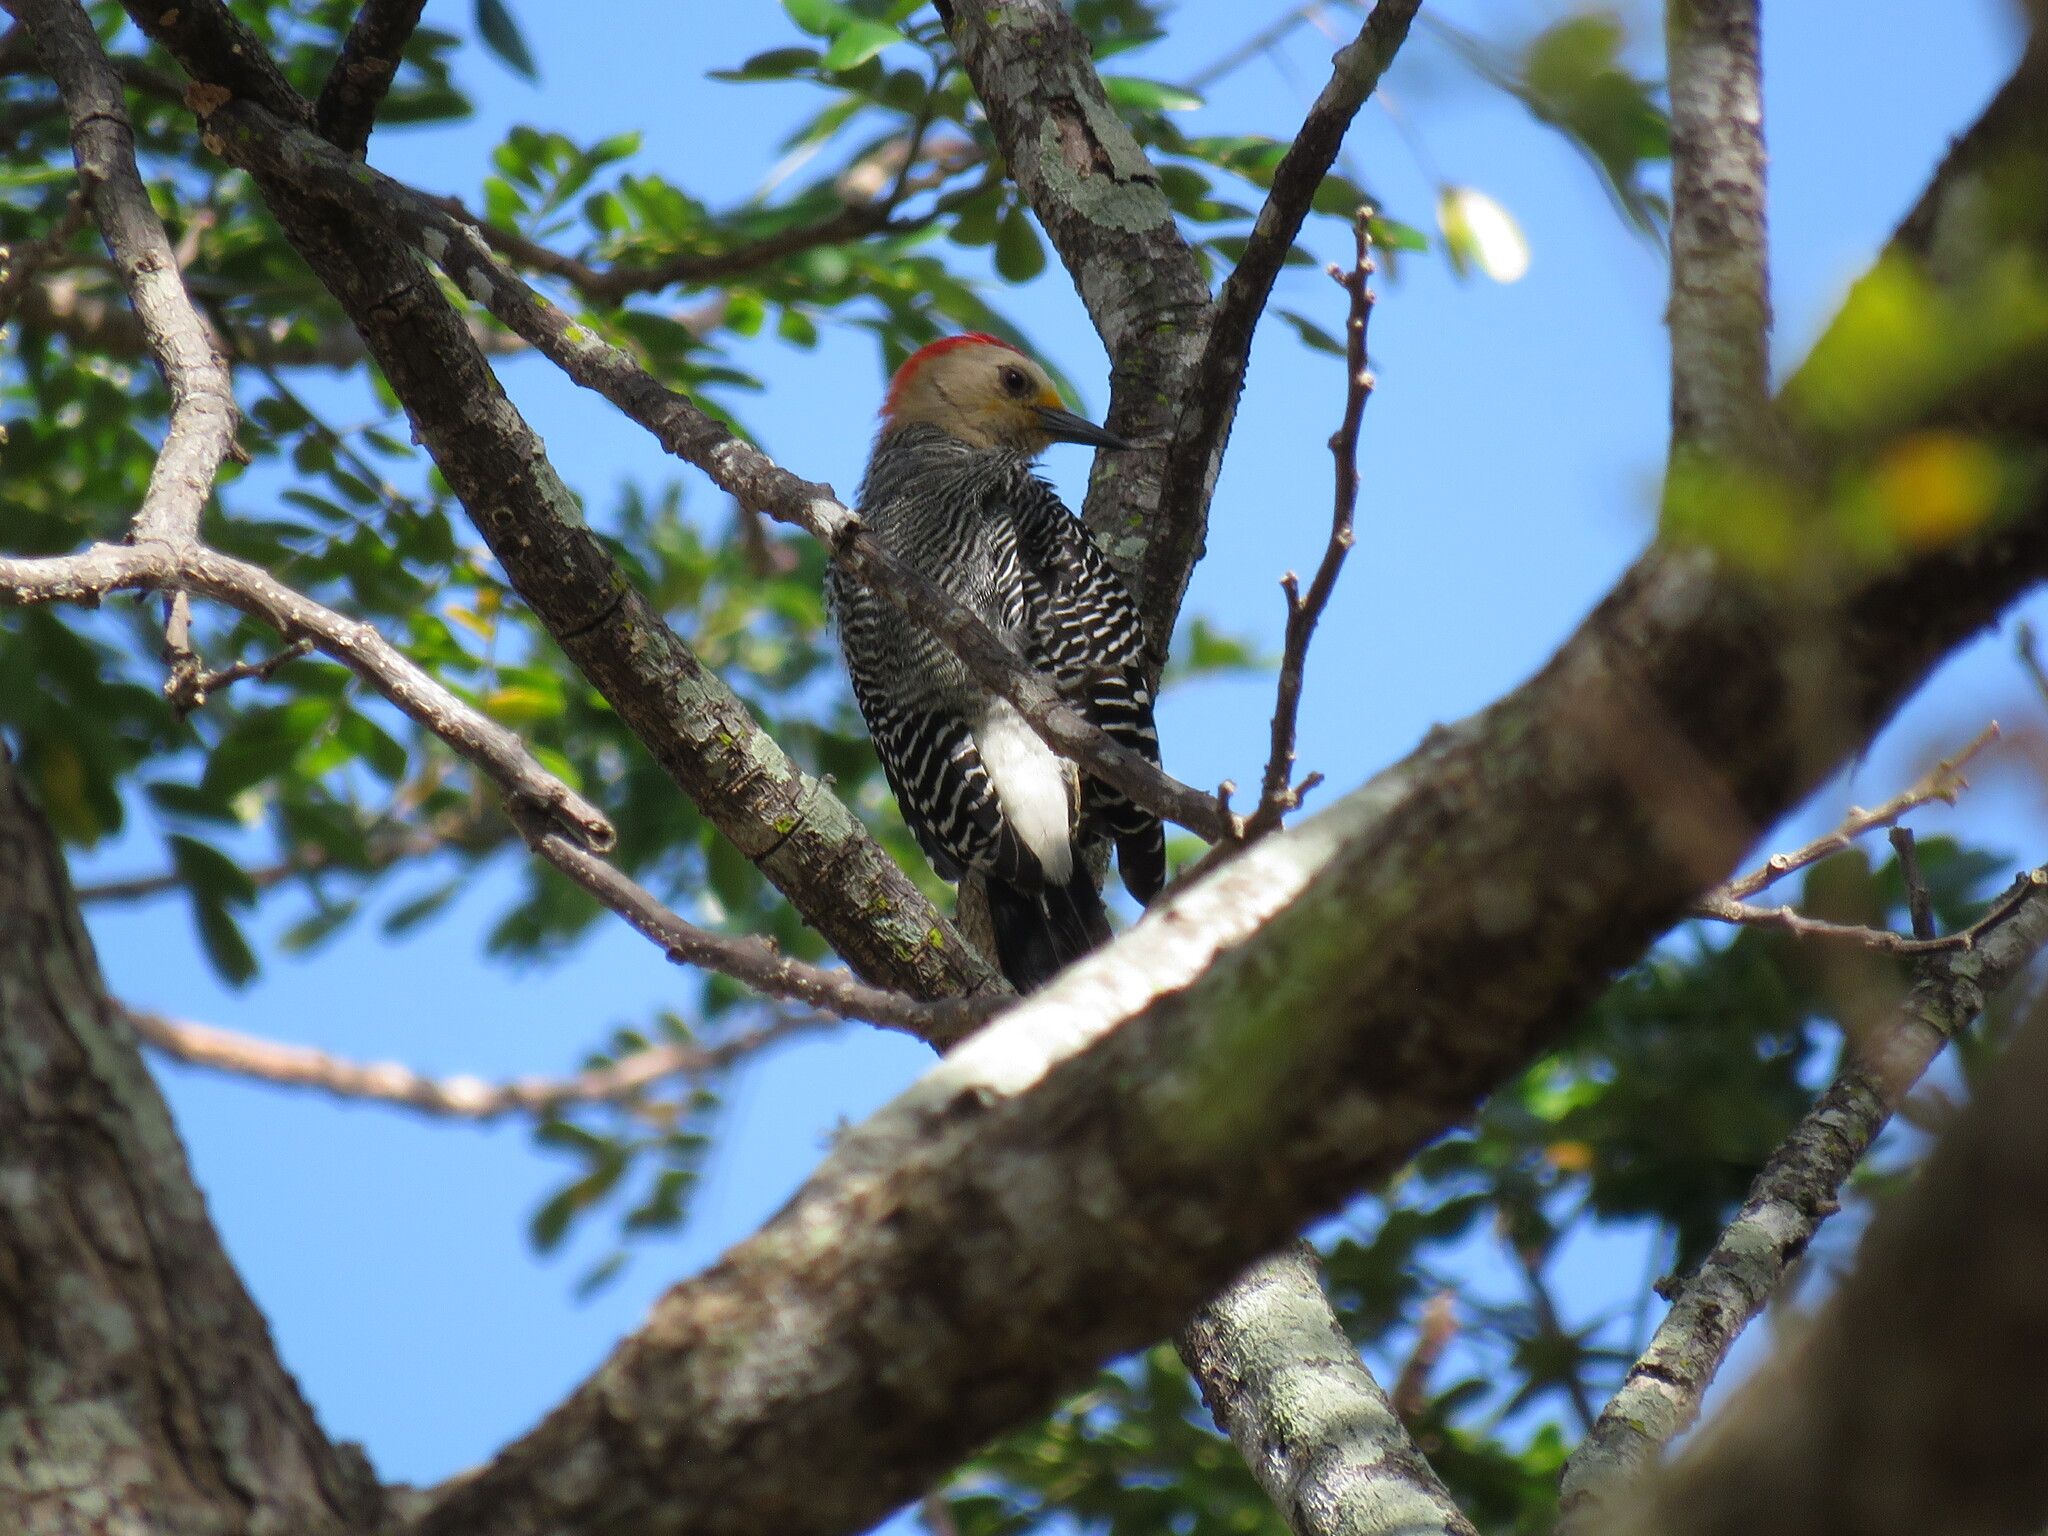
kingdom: Animalia
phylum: Chordata
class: Aves
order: Piciformes
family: Picidae
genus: Melanerpes
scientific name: Melanerpes pygmaeus
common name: Yucatan woodpecker
